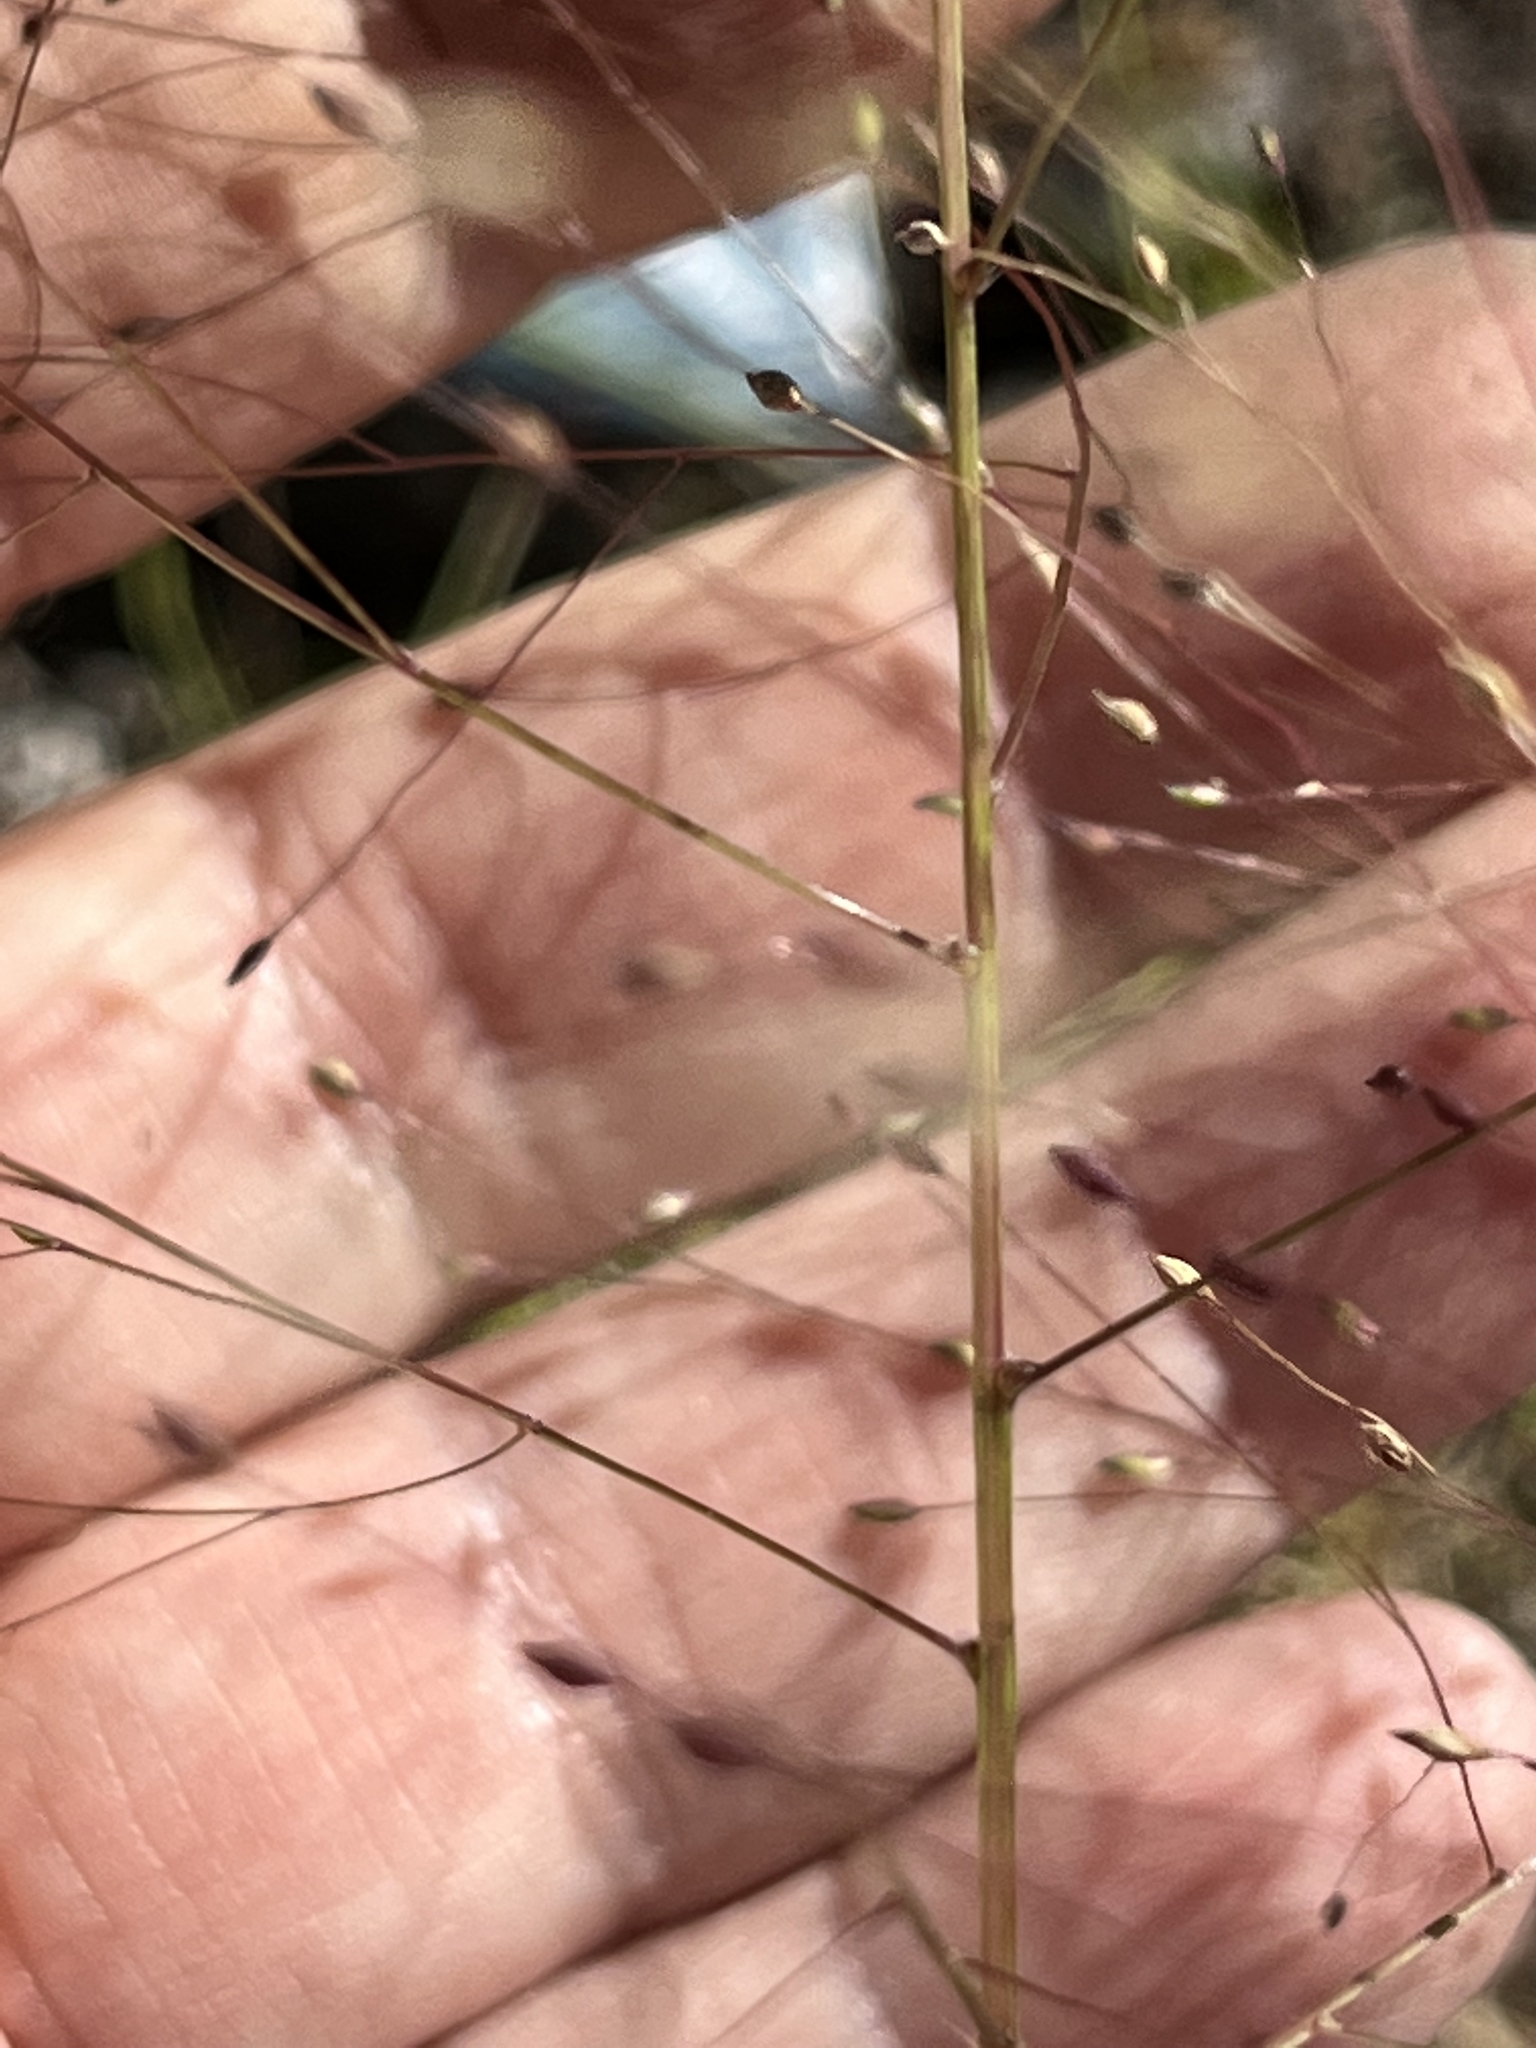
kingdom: Plantae
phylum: Tracheophyta
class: Liliopsida
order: Poales
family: Poaceae
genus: Panicum
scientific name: Panicum capillare
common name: Witch-grass
